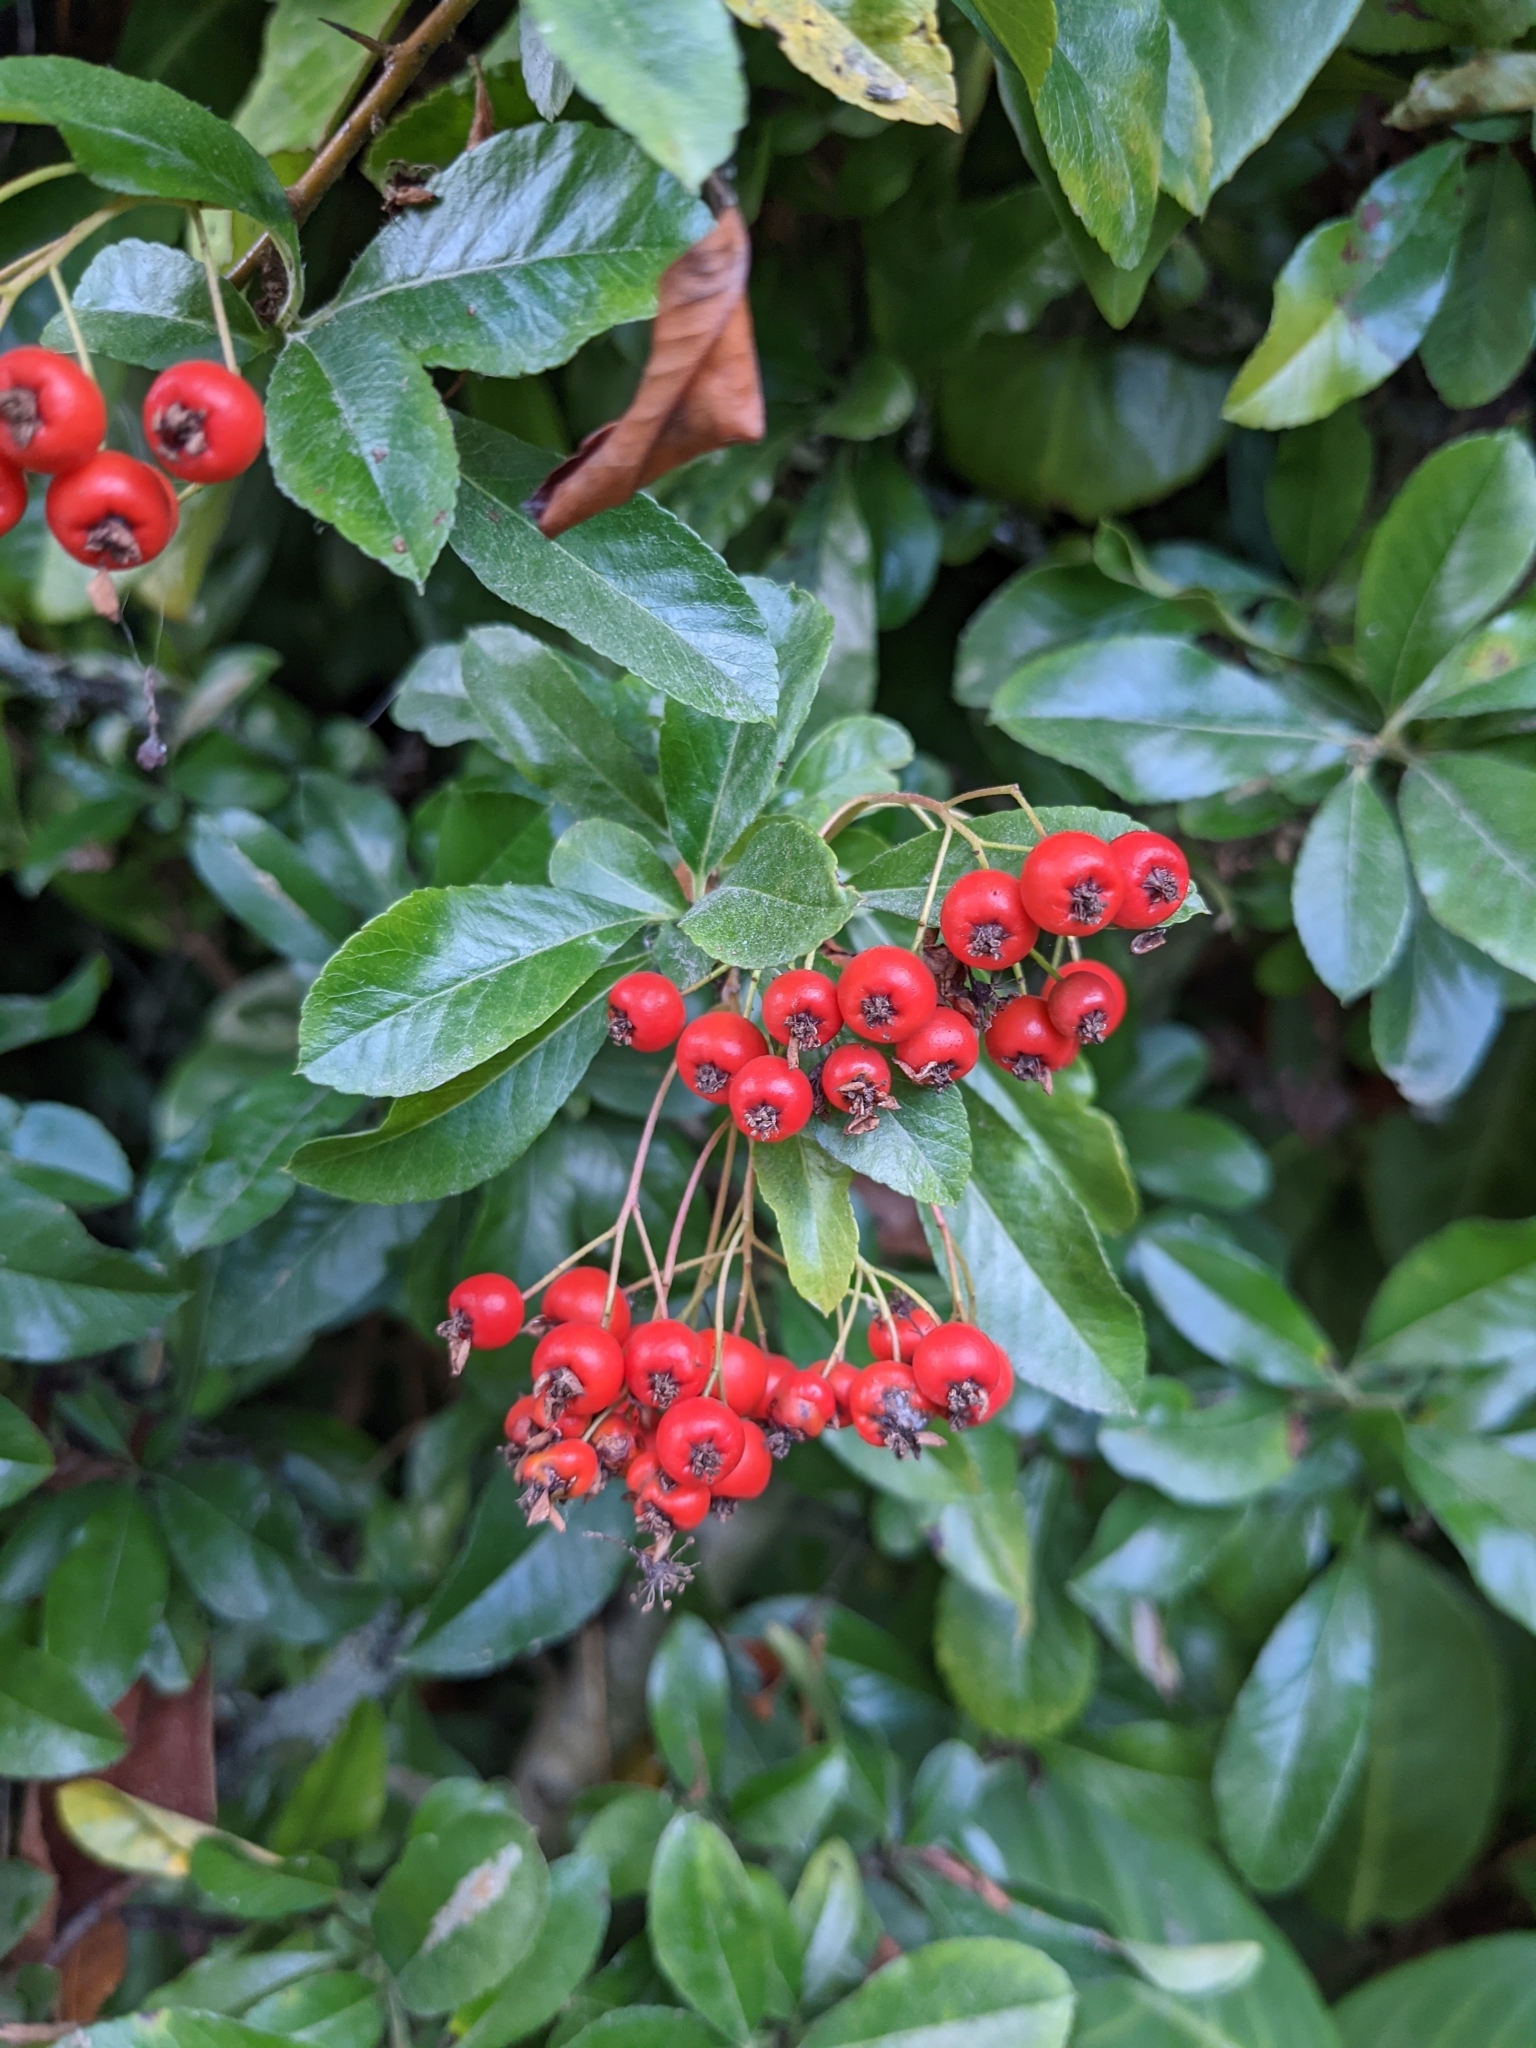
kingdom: Plantae
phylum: Tracheophyta
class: Magnoliopsida
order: Rosales
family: Rosaceae
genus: Pyracantha
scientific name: Pyracantha coccinea
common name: Firethorn
